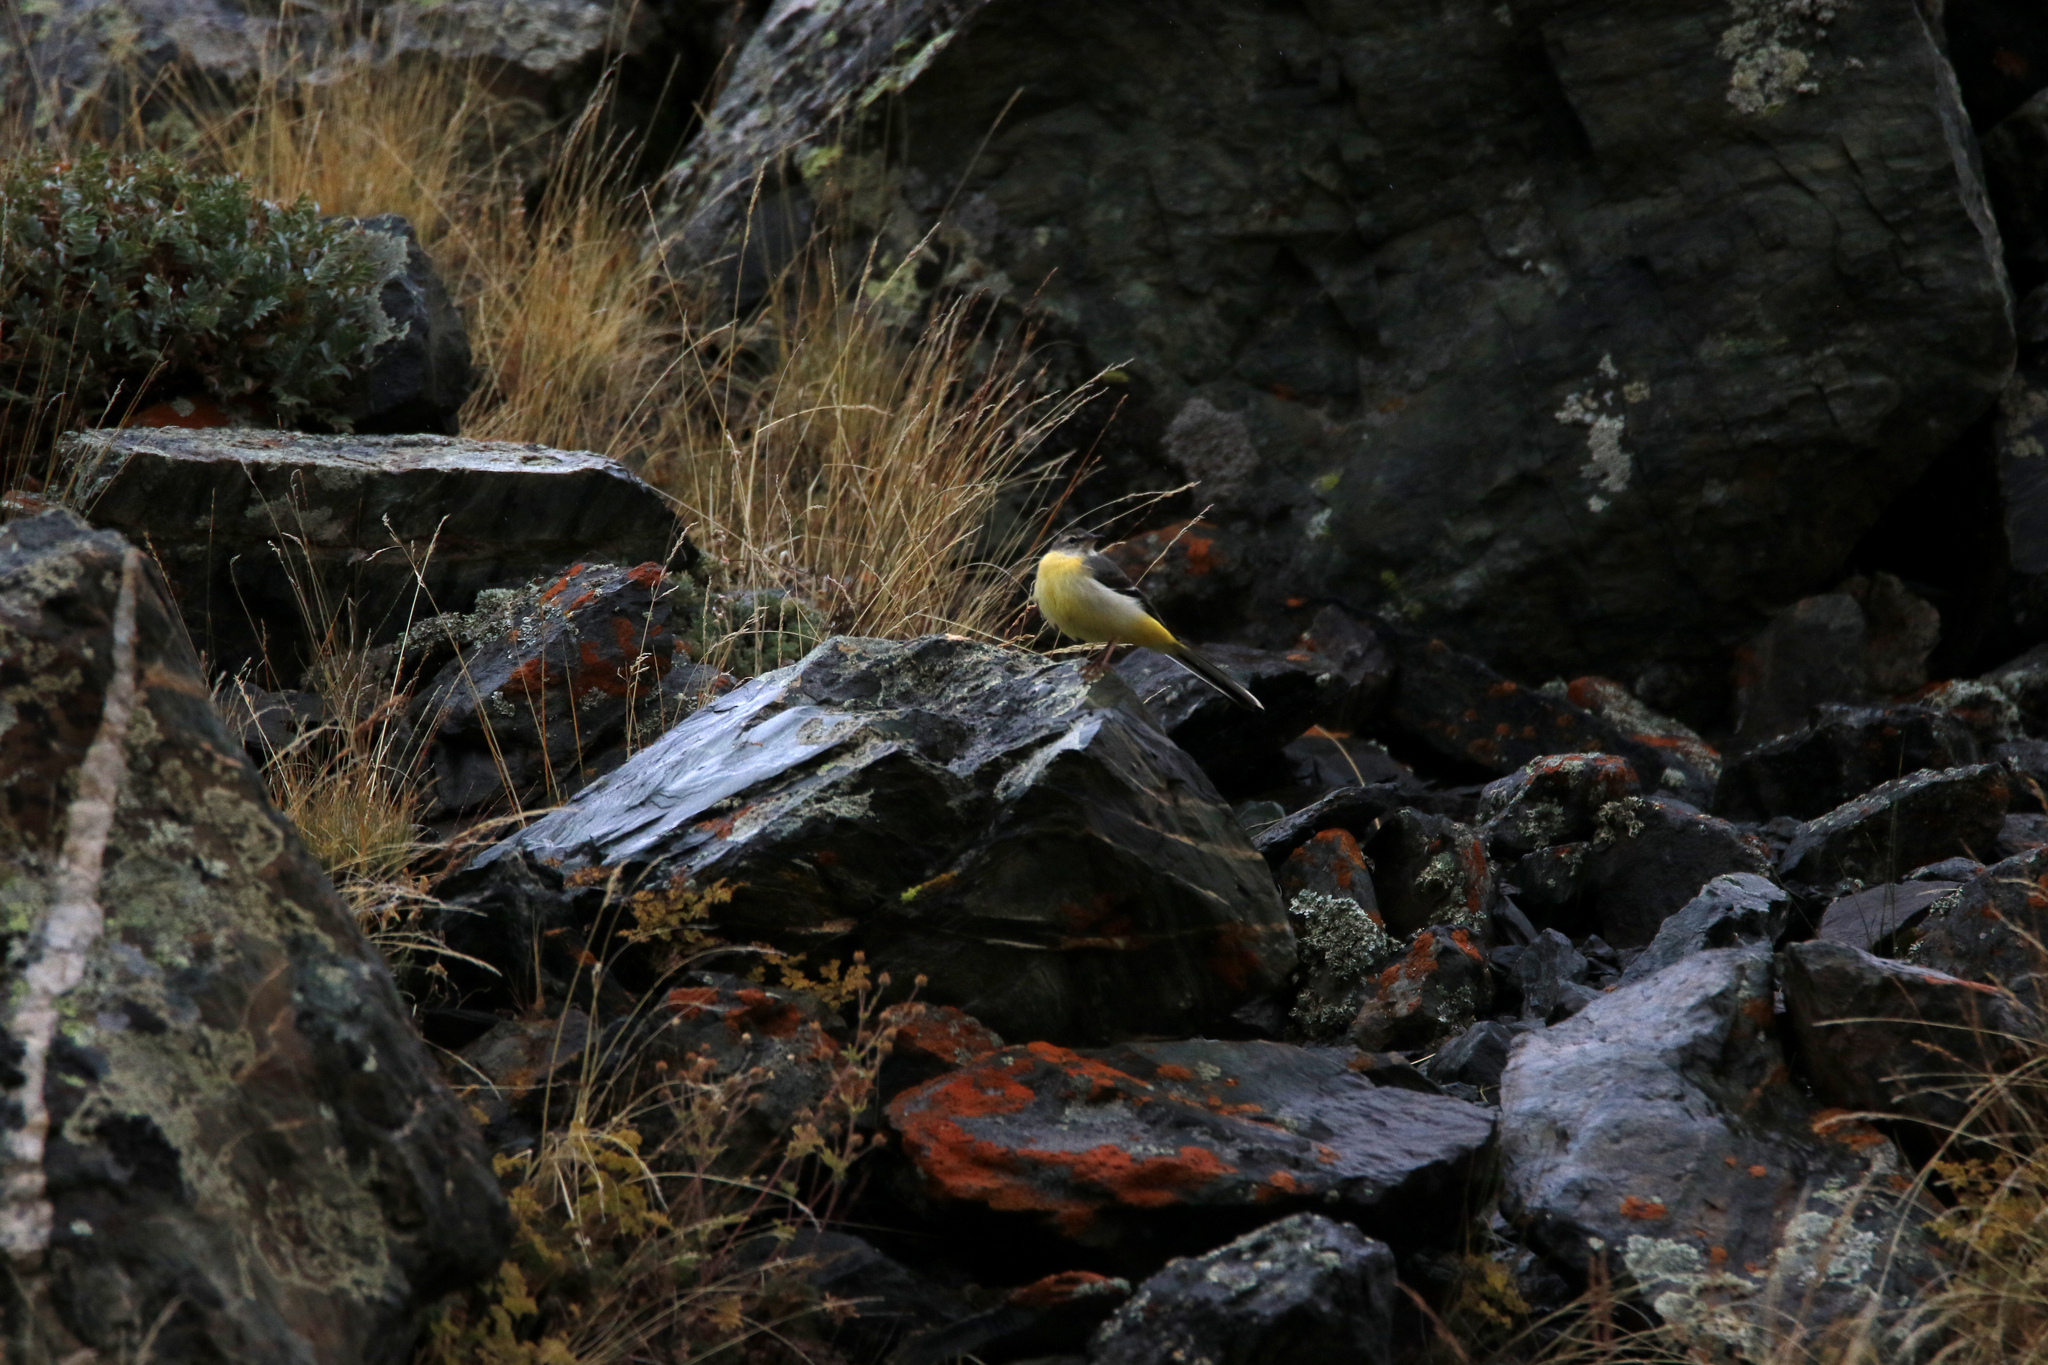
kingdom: Animalia
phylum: Chordata
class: Aves
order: Passeriformes
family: Motacillidae
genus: Motacilla
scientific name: Motacilla cinerea
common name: Grey wagtail
